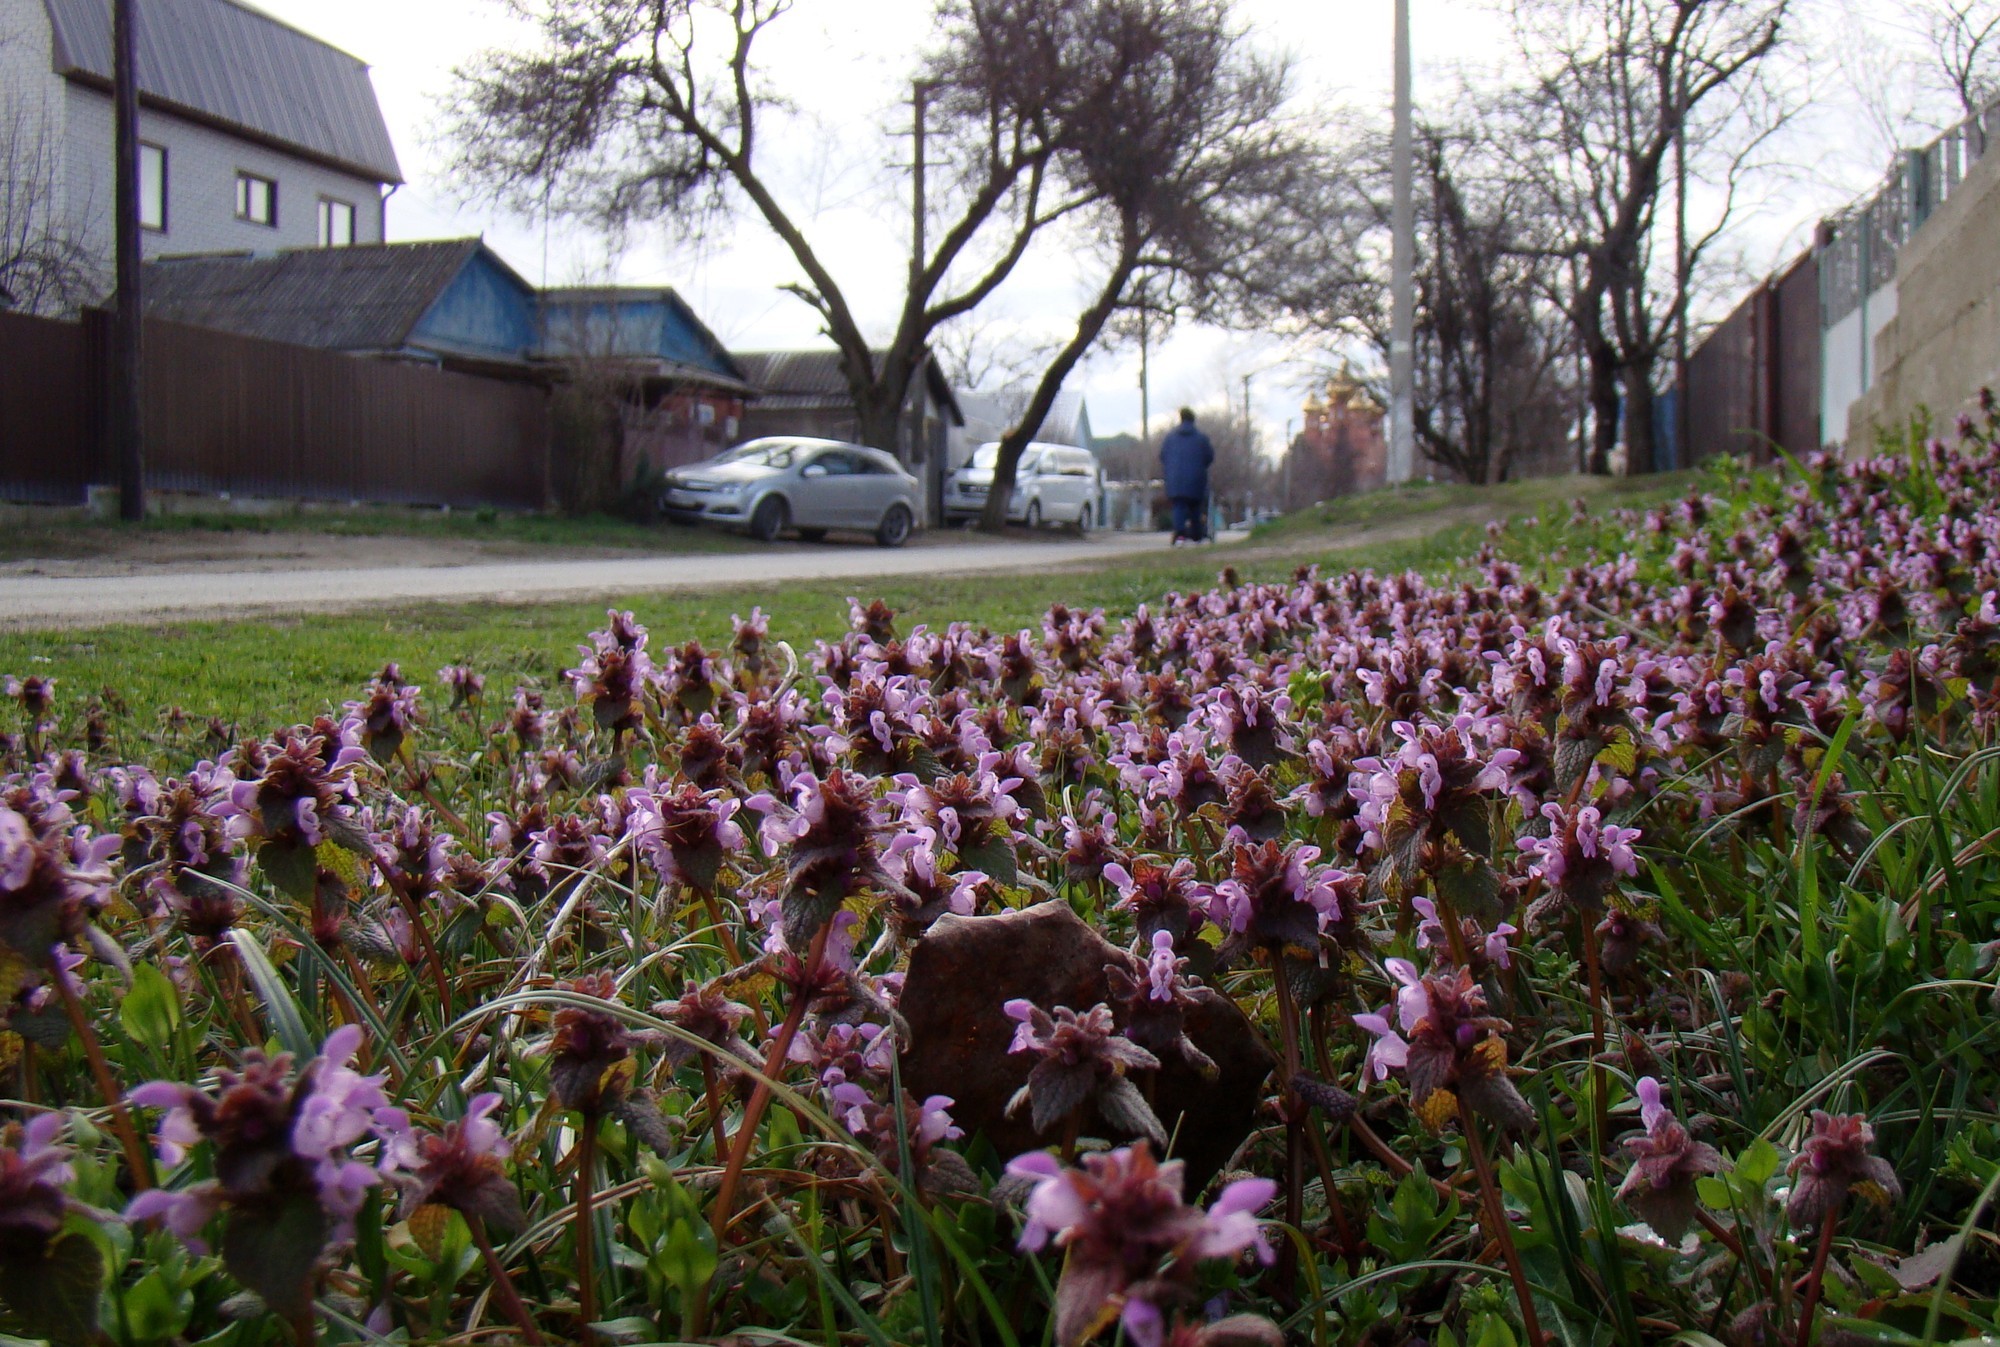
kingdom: Plantae
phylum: Tracheophyta
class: Magnoliopsida
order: Lamiales
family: Lamiaceae
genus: Lamium
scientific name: Lamium purpureum
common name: Red dead-nettle
